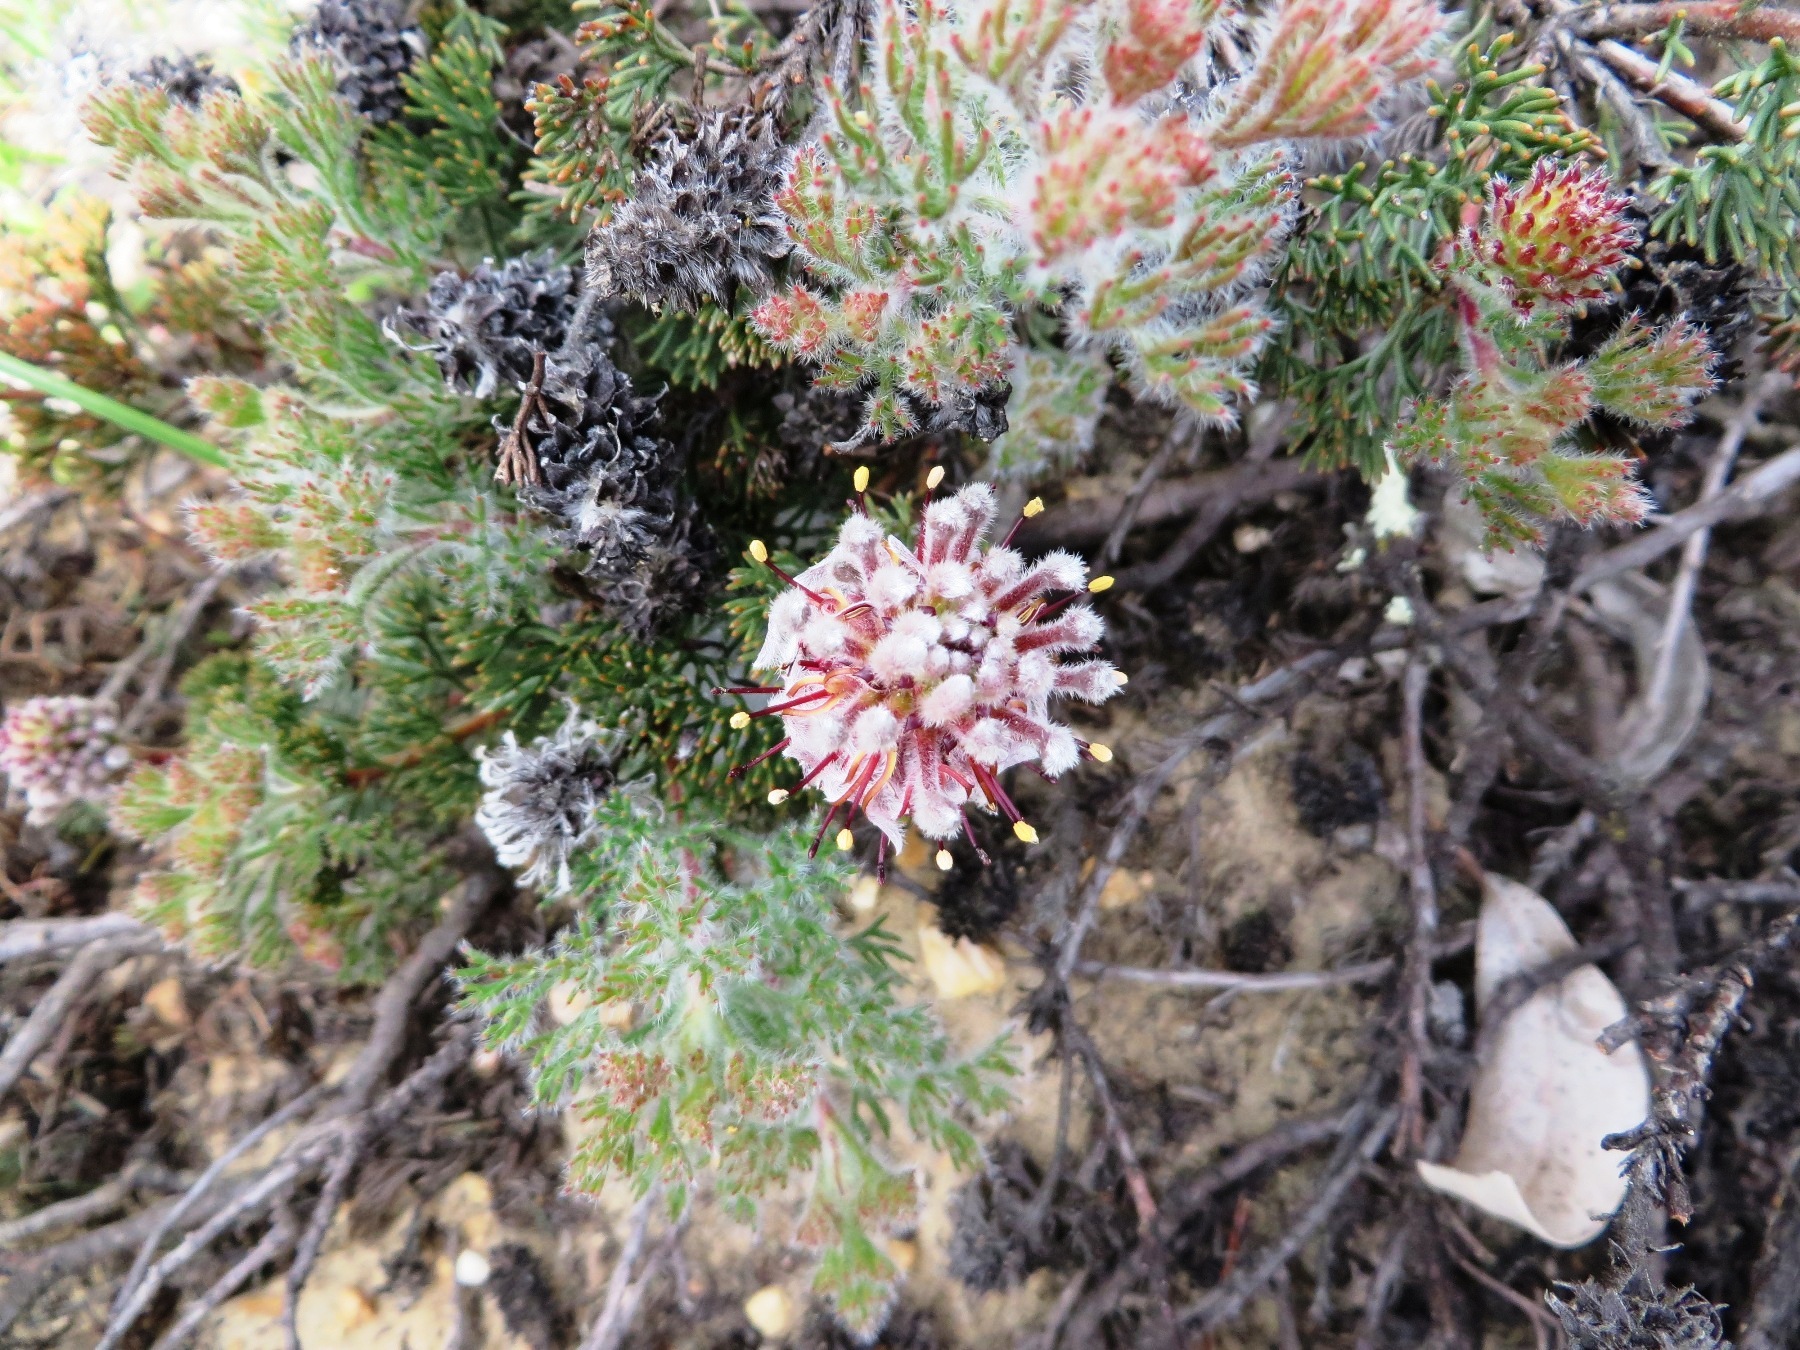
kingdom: Plantae
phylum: Tracheophyta
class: Magnoliopsida
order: Proteales
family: Proteaceae
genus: Serruria
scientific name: Serruria scoparia
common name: Forlorn spiderhead
